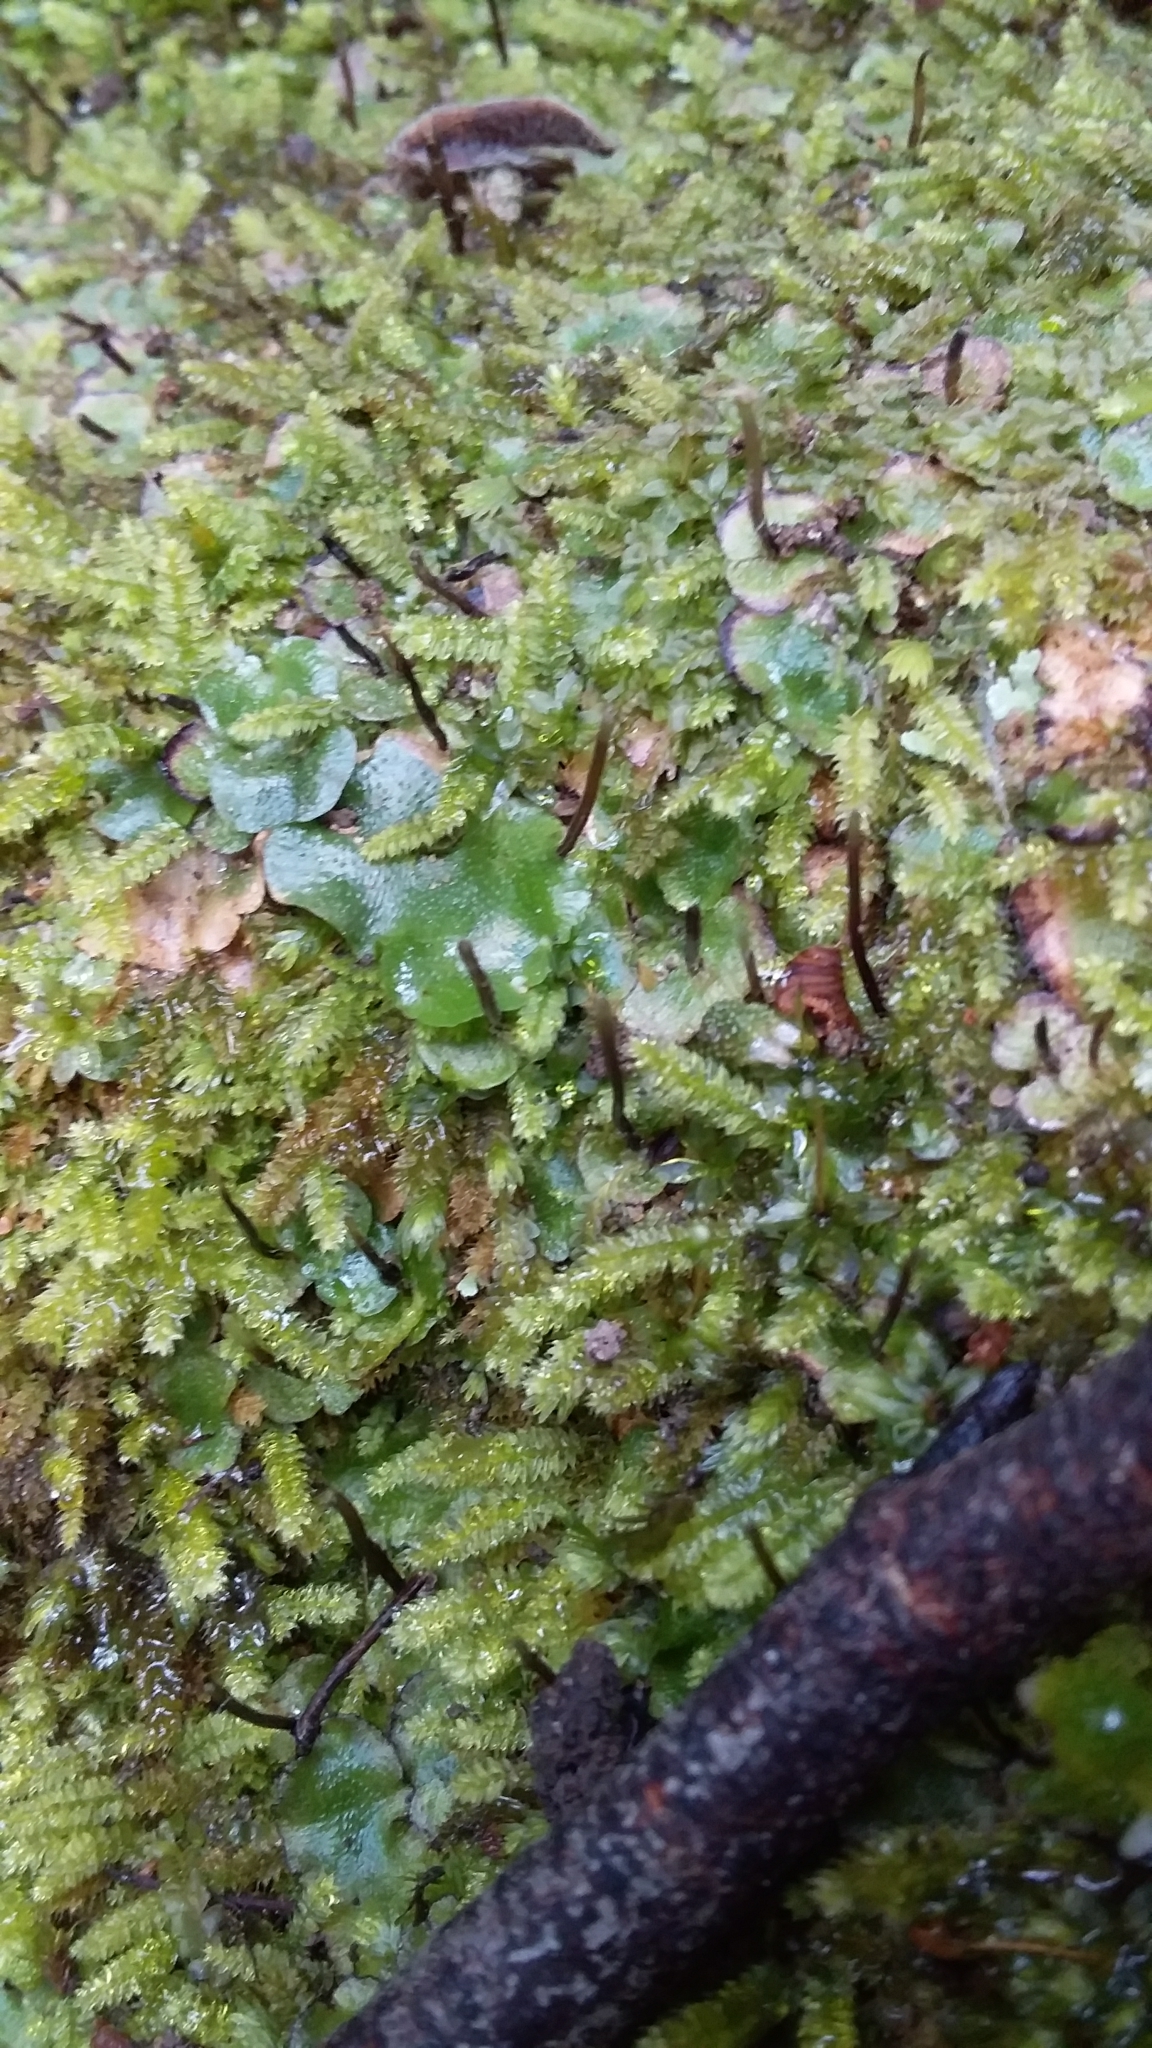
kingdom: Plantae
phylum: Marchantiophyta
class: Marchantiopsida
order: Marchantiales
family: Aytoniaceae
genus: Asterella
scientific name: Asterella drummondii
